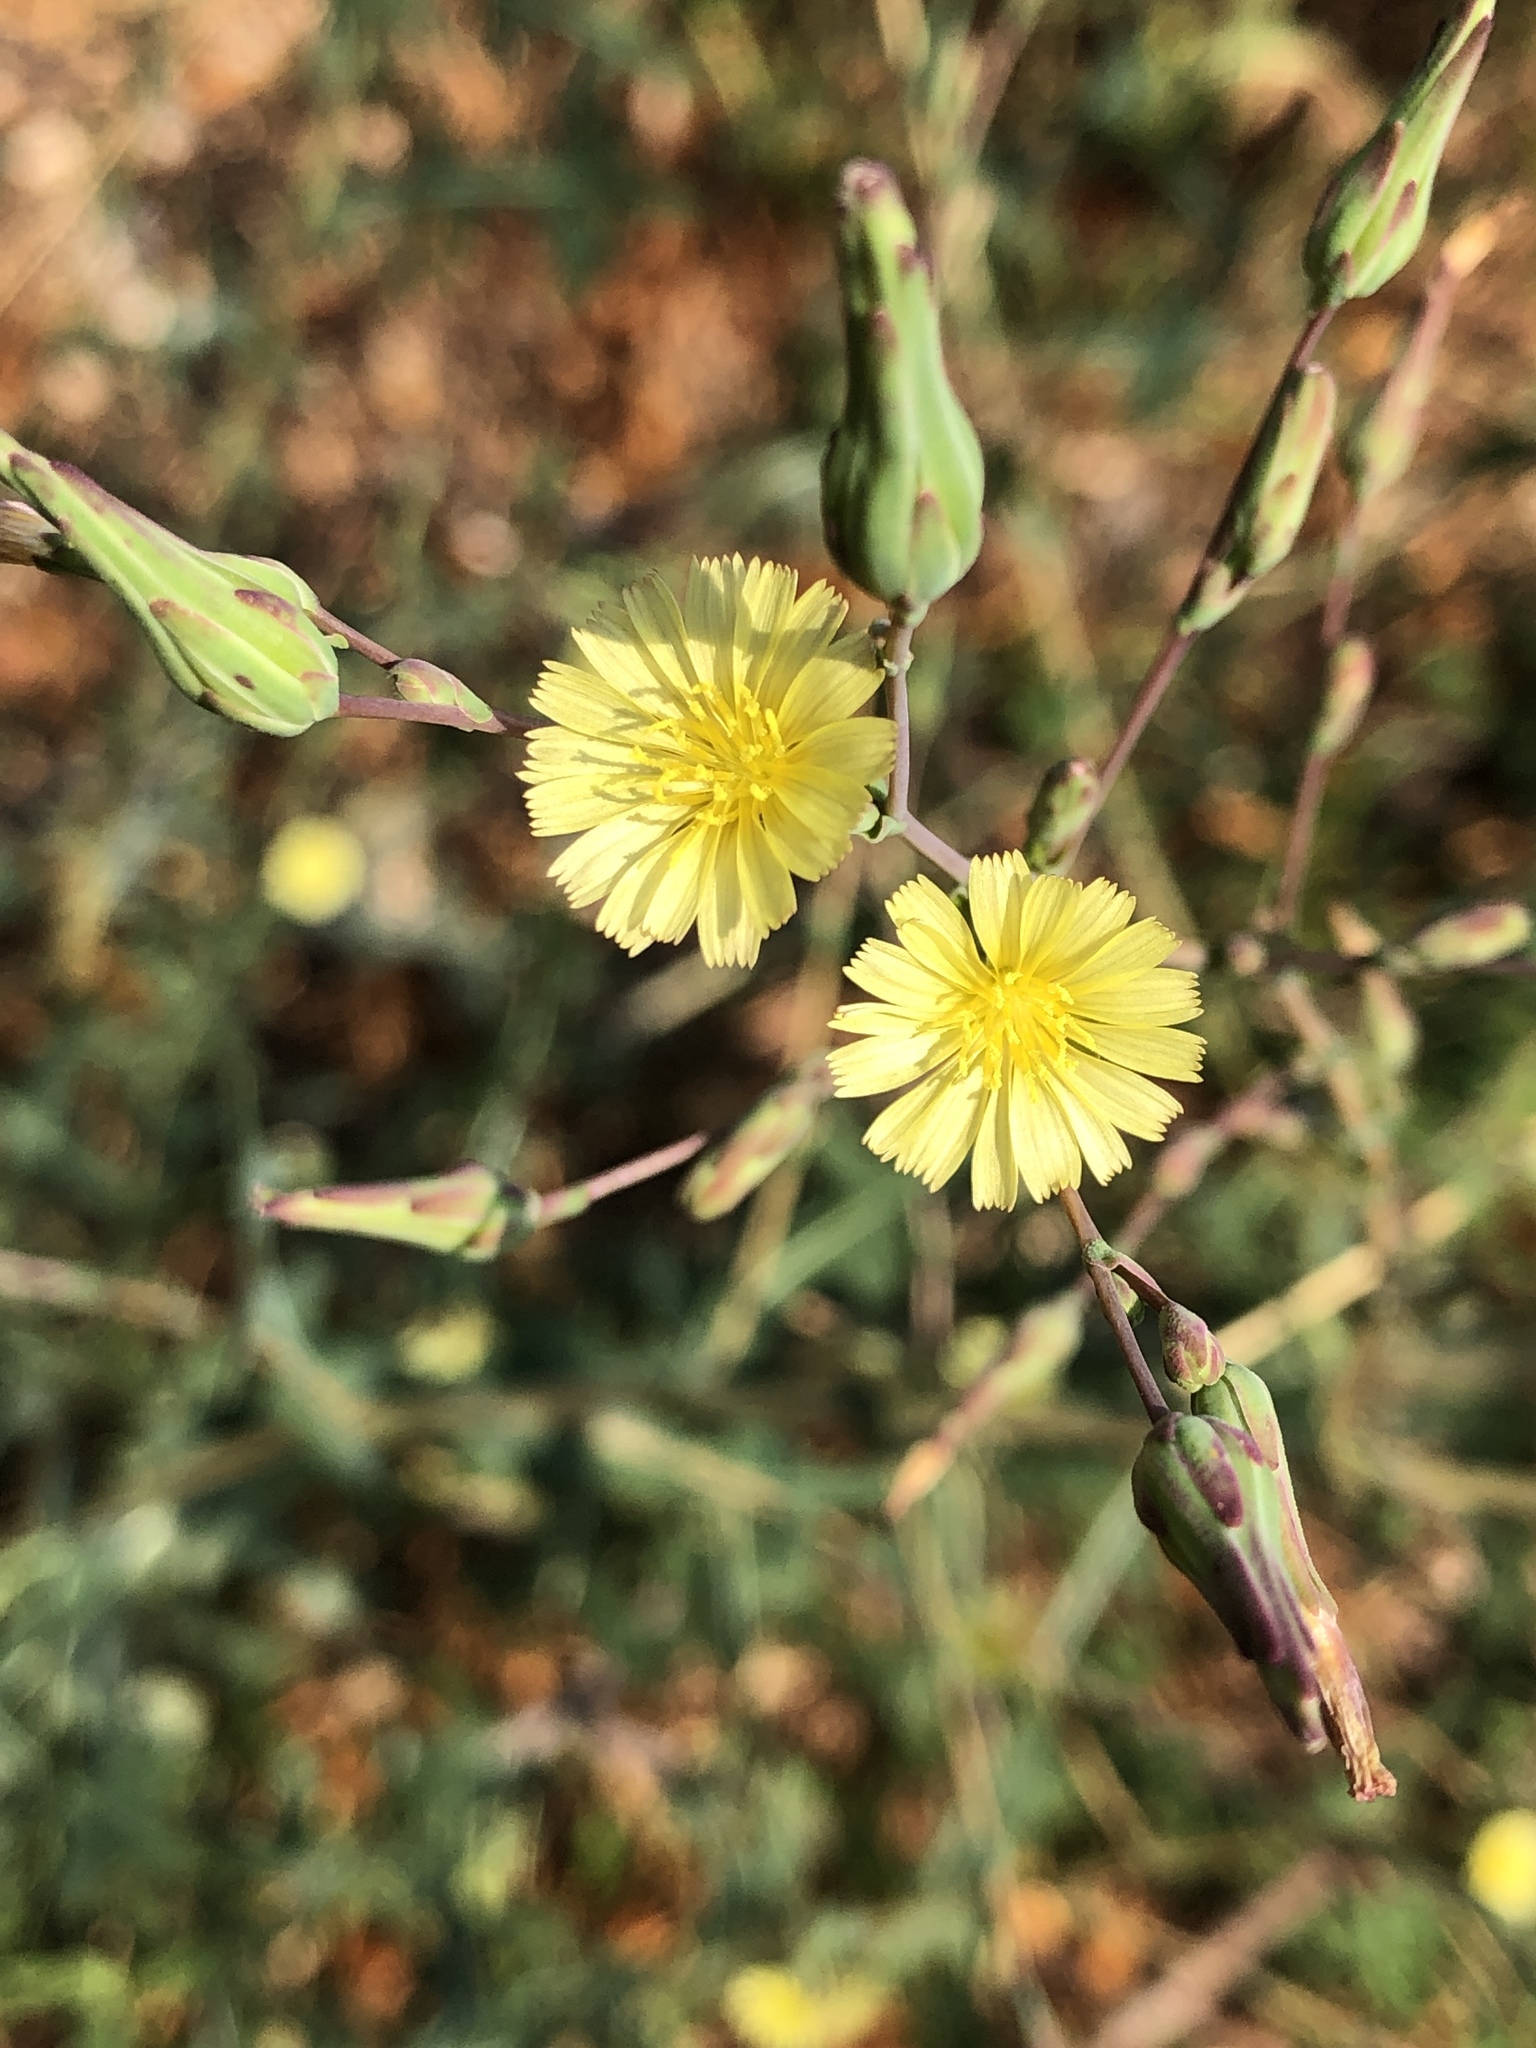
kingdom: Plantae
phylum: Tracheophyta
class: Magnoliopsida
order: Asterales
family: Asteraceae
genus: Lactuca
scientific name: Lactuca serriola
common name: Prickly lettuce
